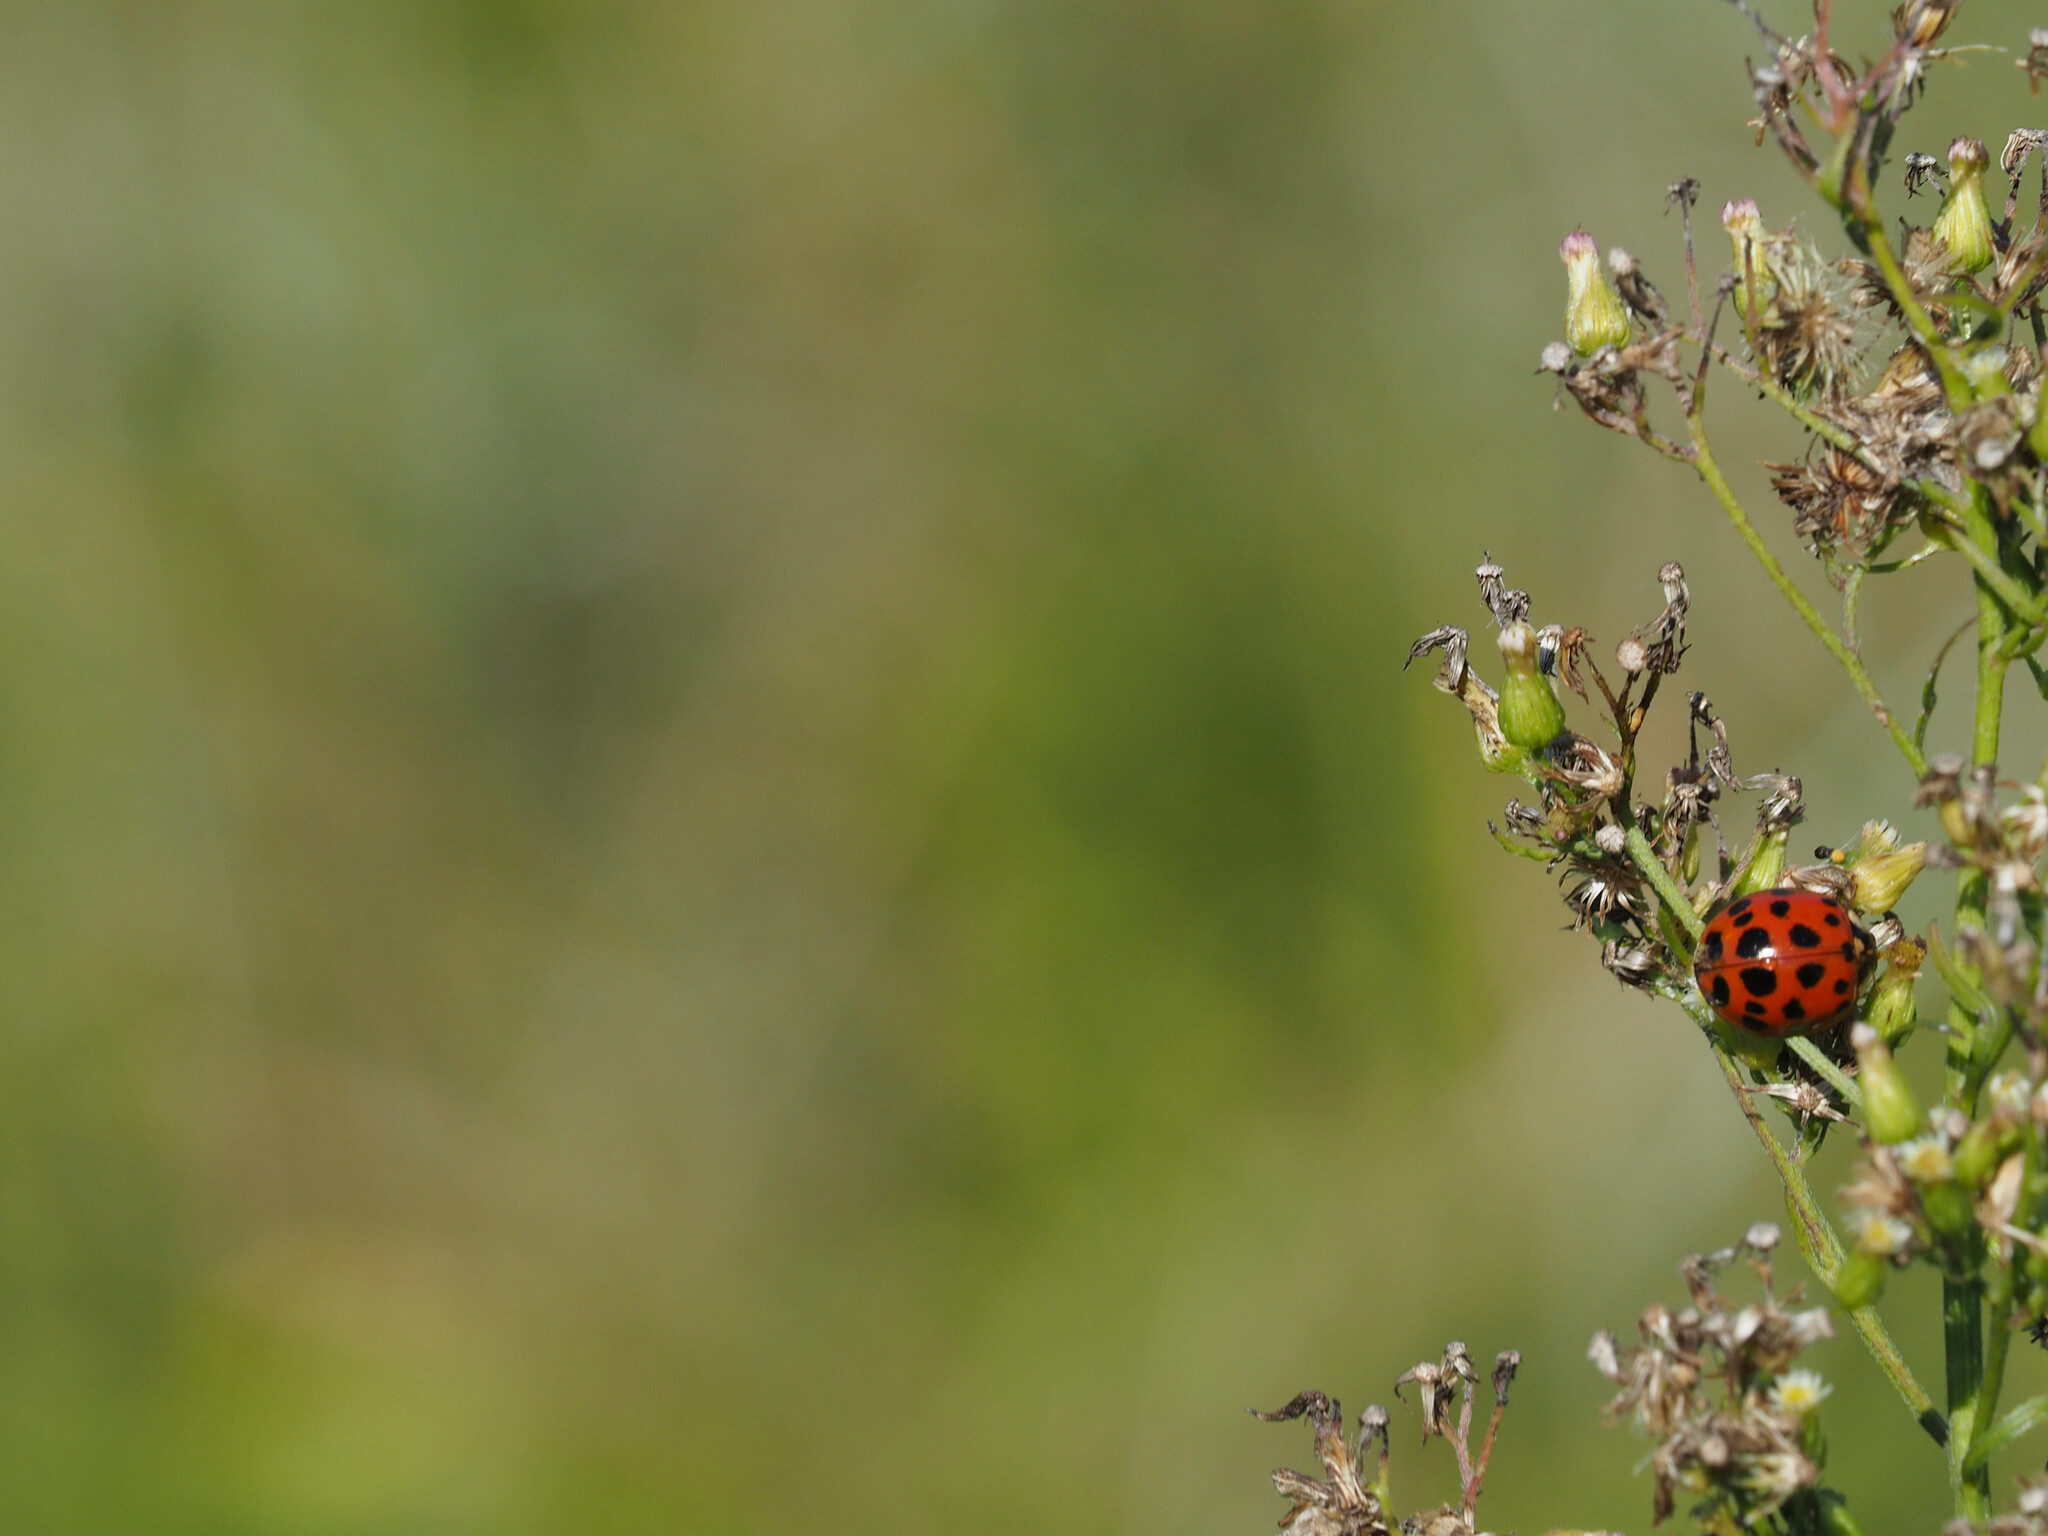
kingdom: Animalia
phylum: Arthropoda
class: Insecta
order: Coleoptera
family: Coccinellidae
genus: Harmonia
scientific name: Harmonia axyridis
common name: Harlequin ladybird
